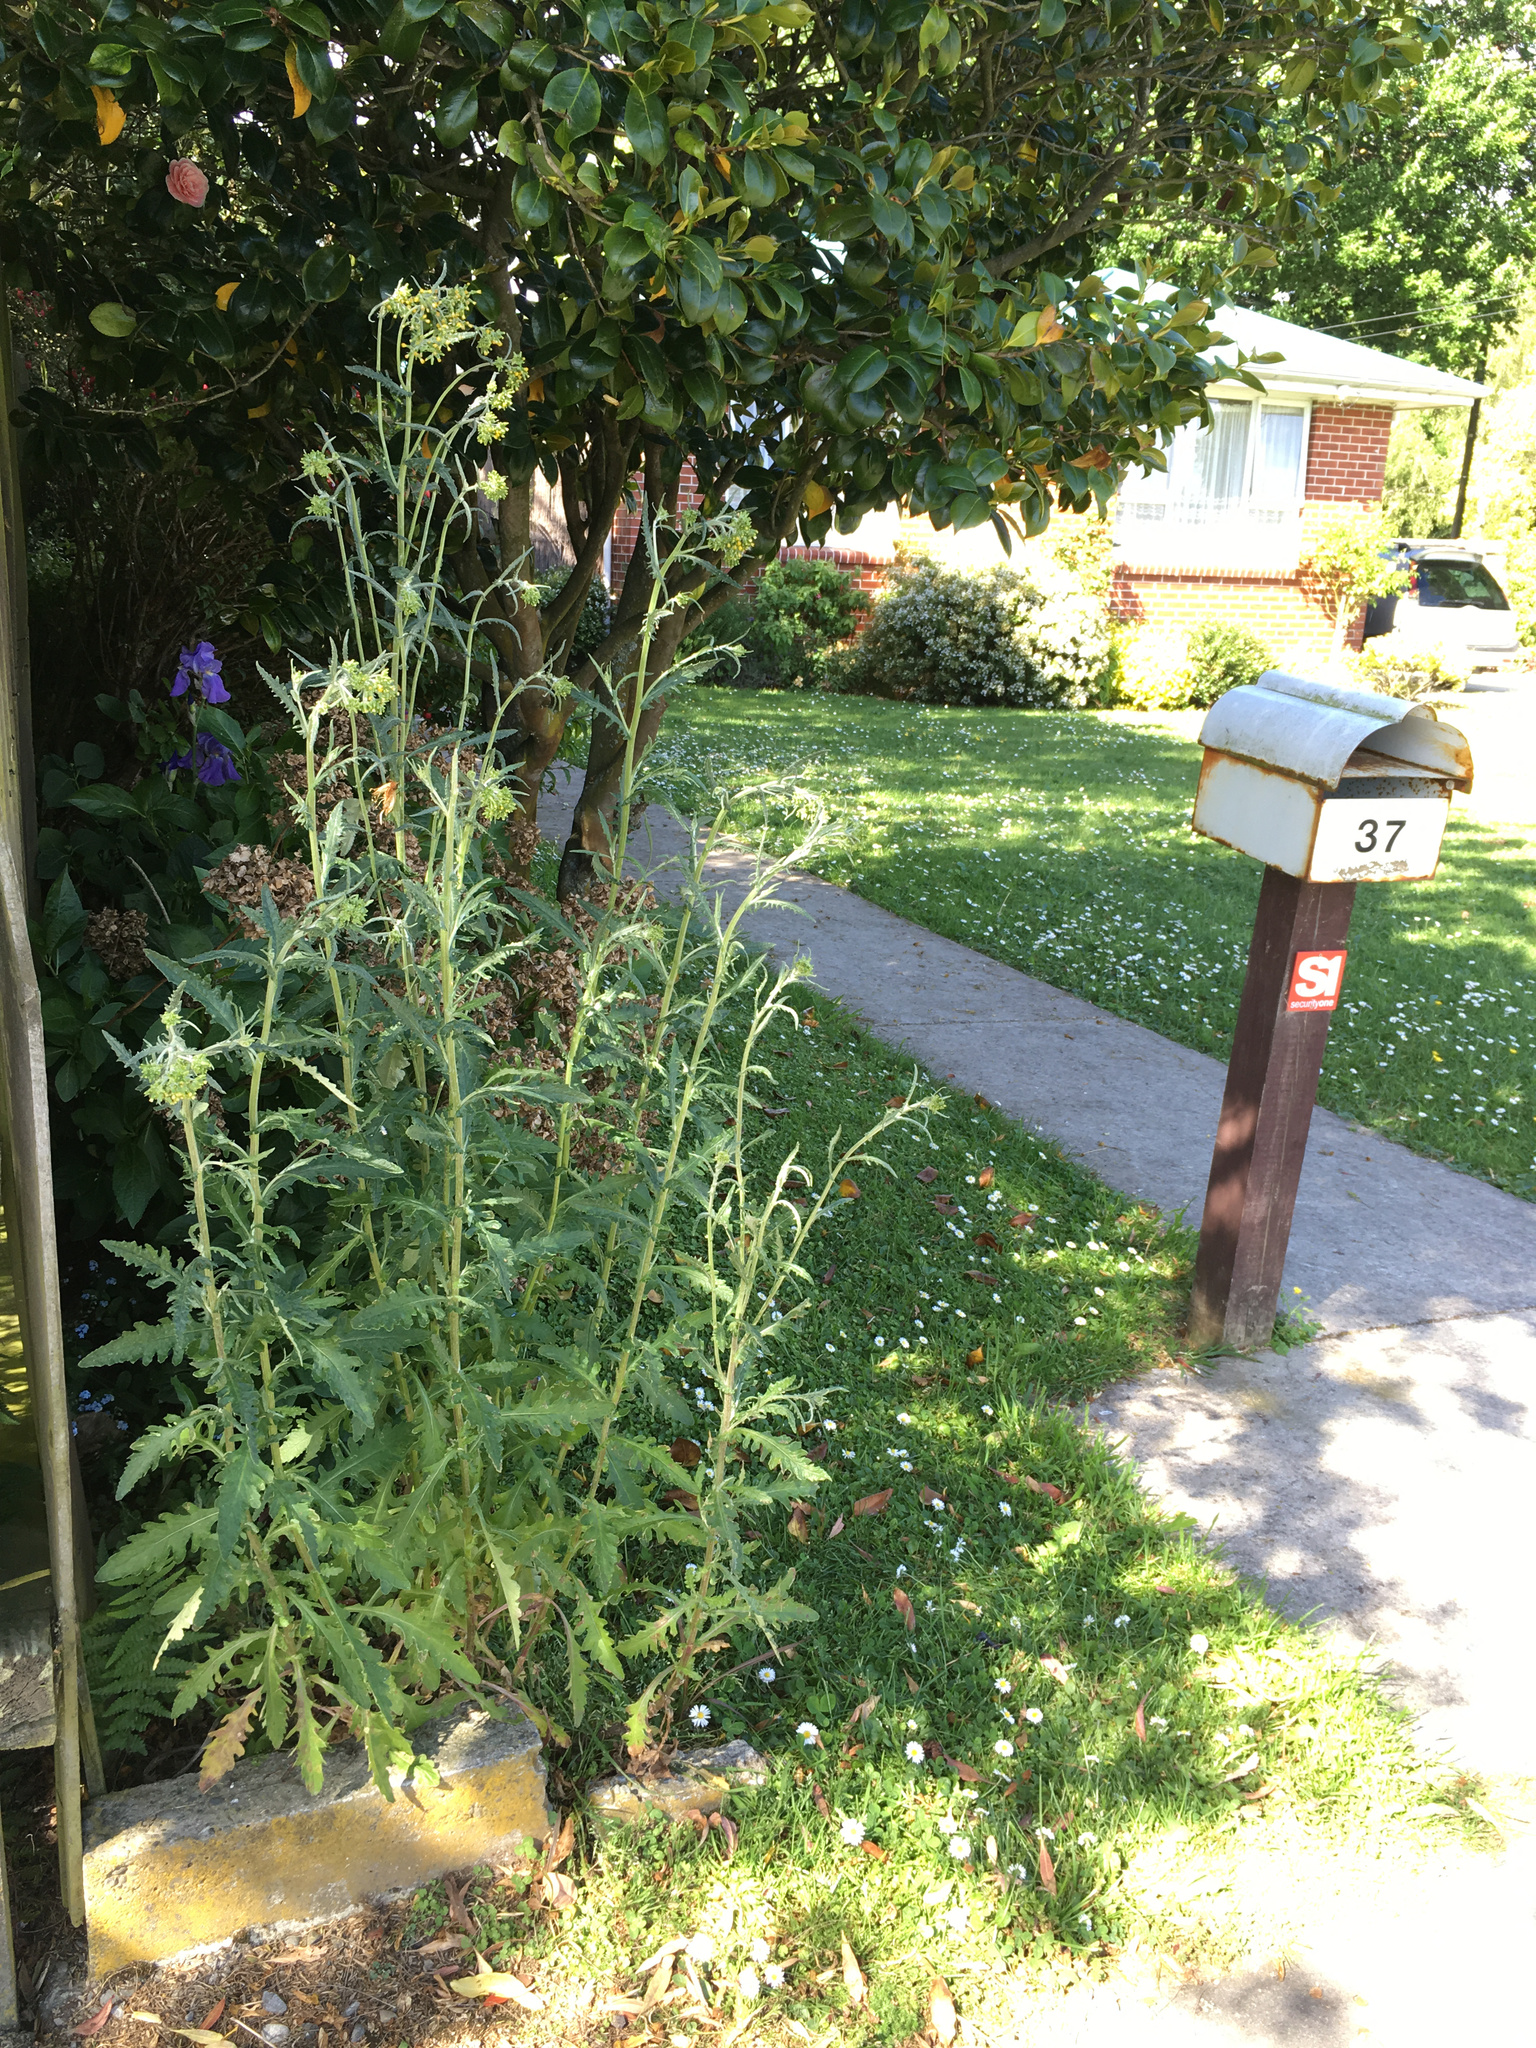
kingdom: Plantae
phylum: Tracheophyta
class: Magnoliopsida
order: Asterales
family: Asteraceae
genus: Senecio
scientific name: Senecio glomeratus
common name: Cutleaf burnweed
